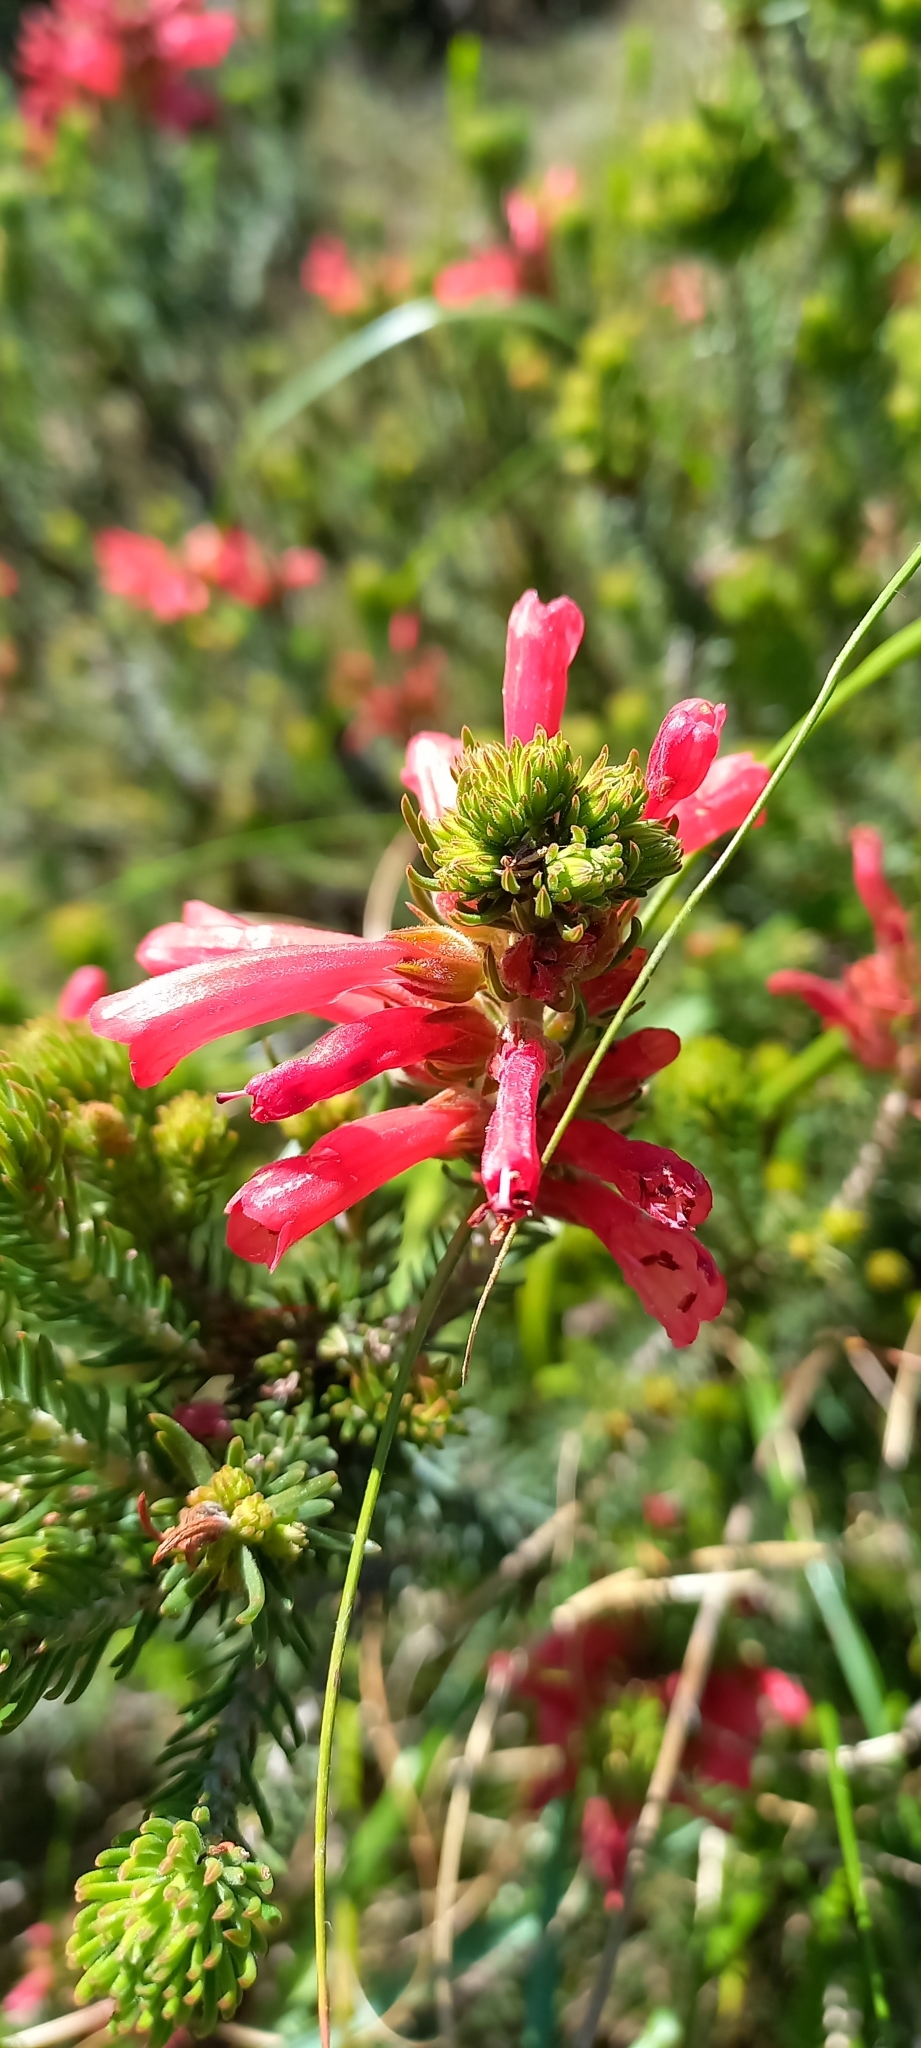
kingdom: Plantae
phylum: Tracheophyta
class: Magnoliopsida
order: Ericales
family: Ericaceae
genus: Erica
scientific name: Erica abietina
